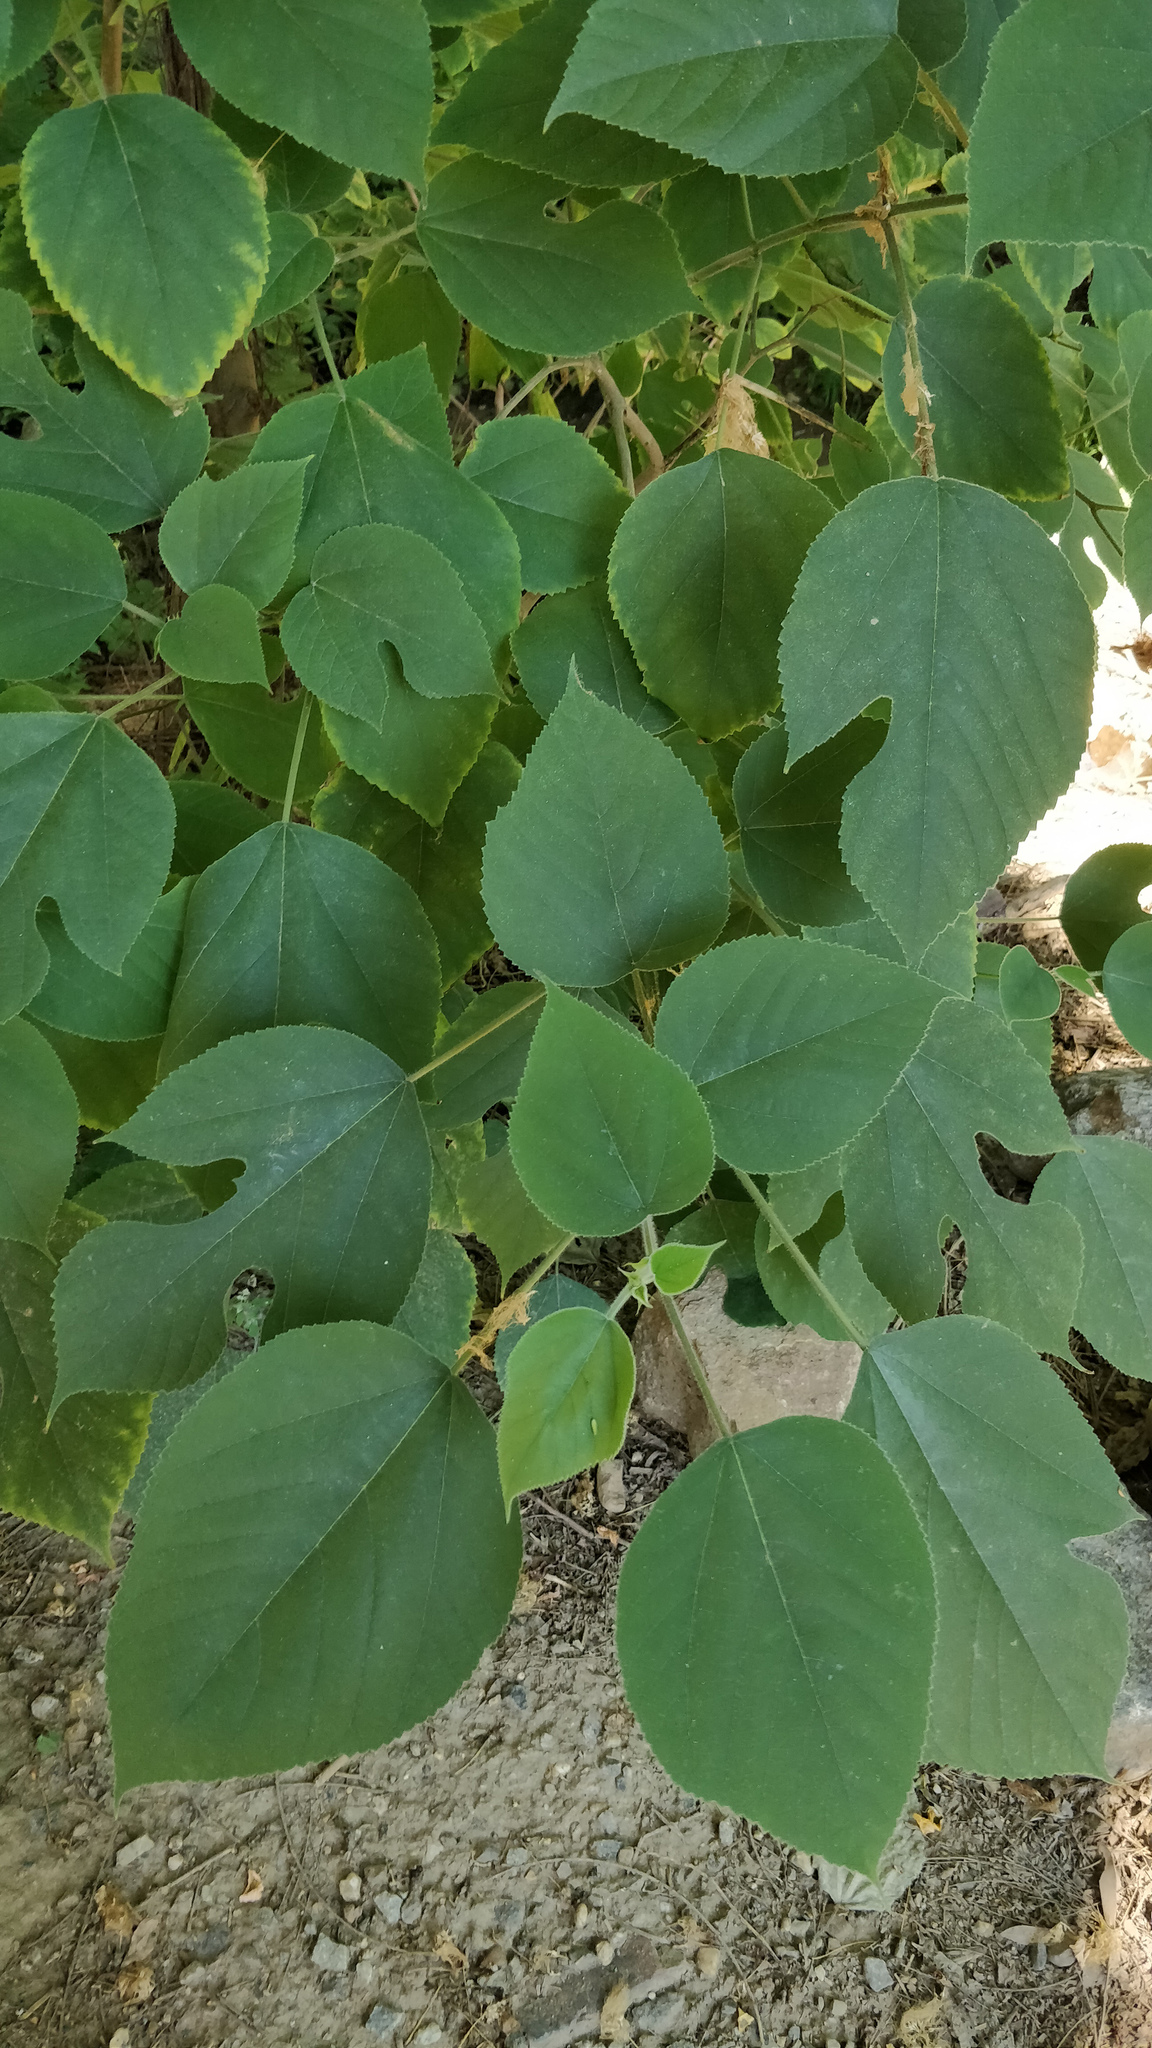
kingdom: Plantae
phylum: Tracheophyta
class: Magnoliopsida
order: Rosales
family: Moraceae
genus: Broussonetia
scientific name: Broussonetia papyrifera
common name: Paper mulberry
